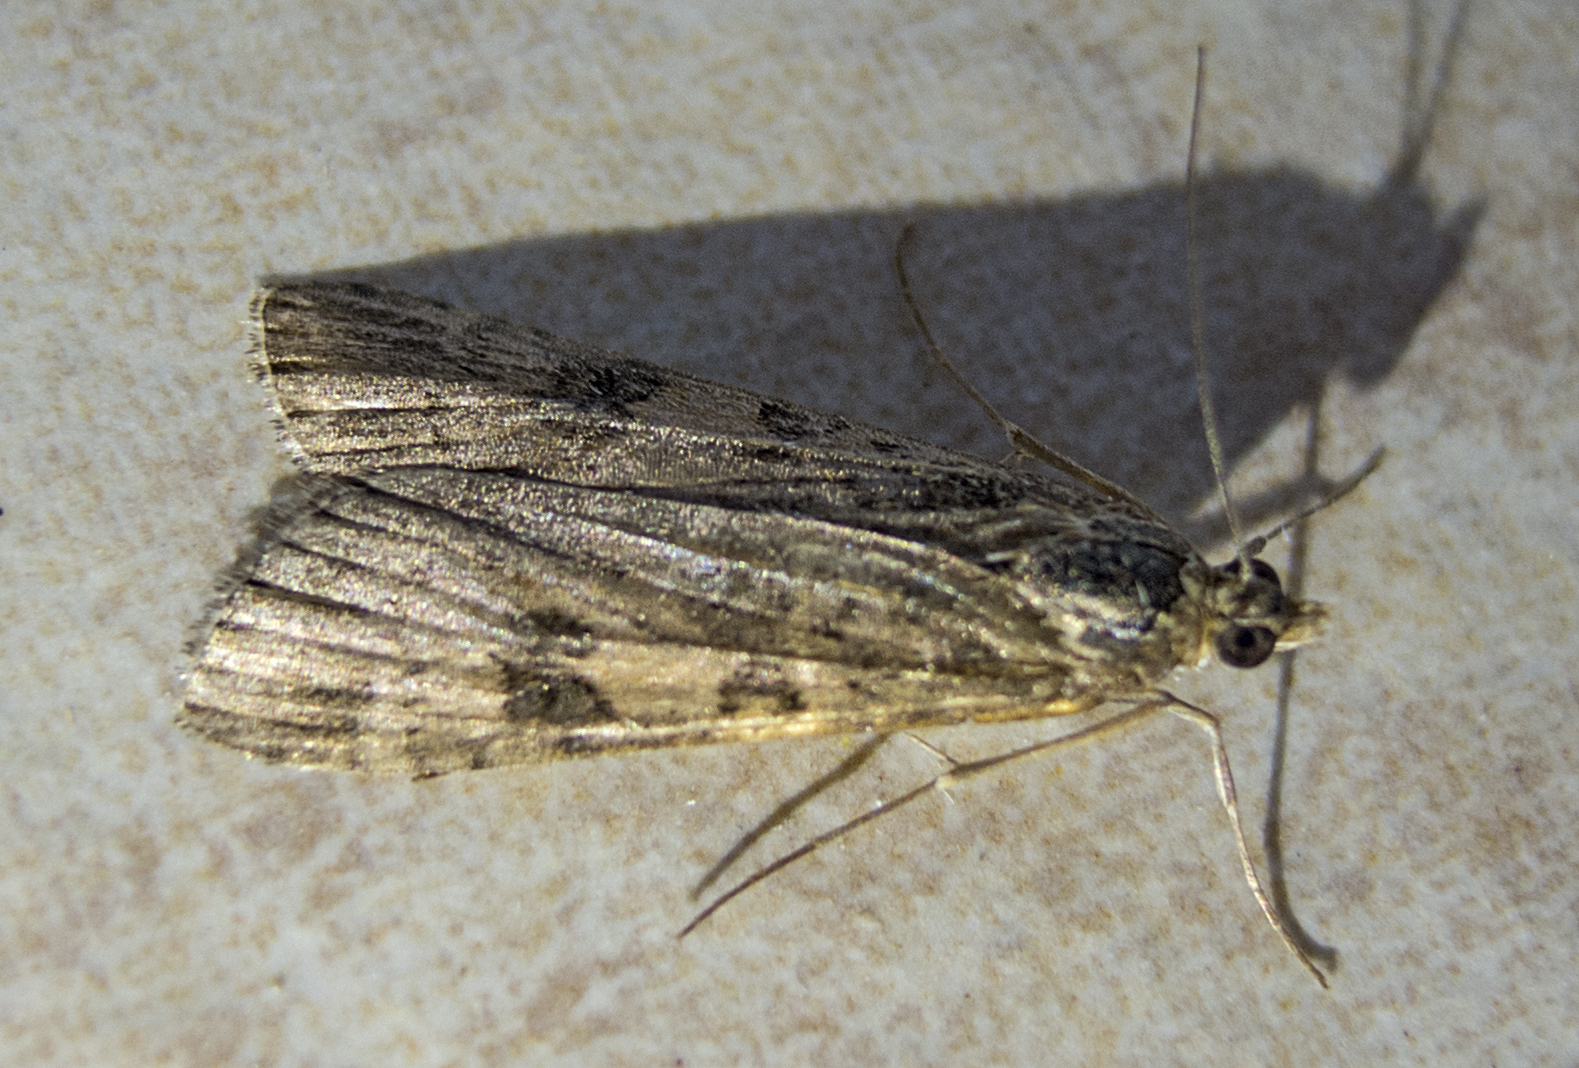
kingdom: Animalia
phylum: Arthropoda
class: Insecta
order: Lepidoptera
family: Crambidae
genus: Nomophila
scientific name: Nomophila noctuella
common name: Rush veneer
